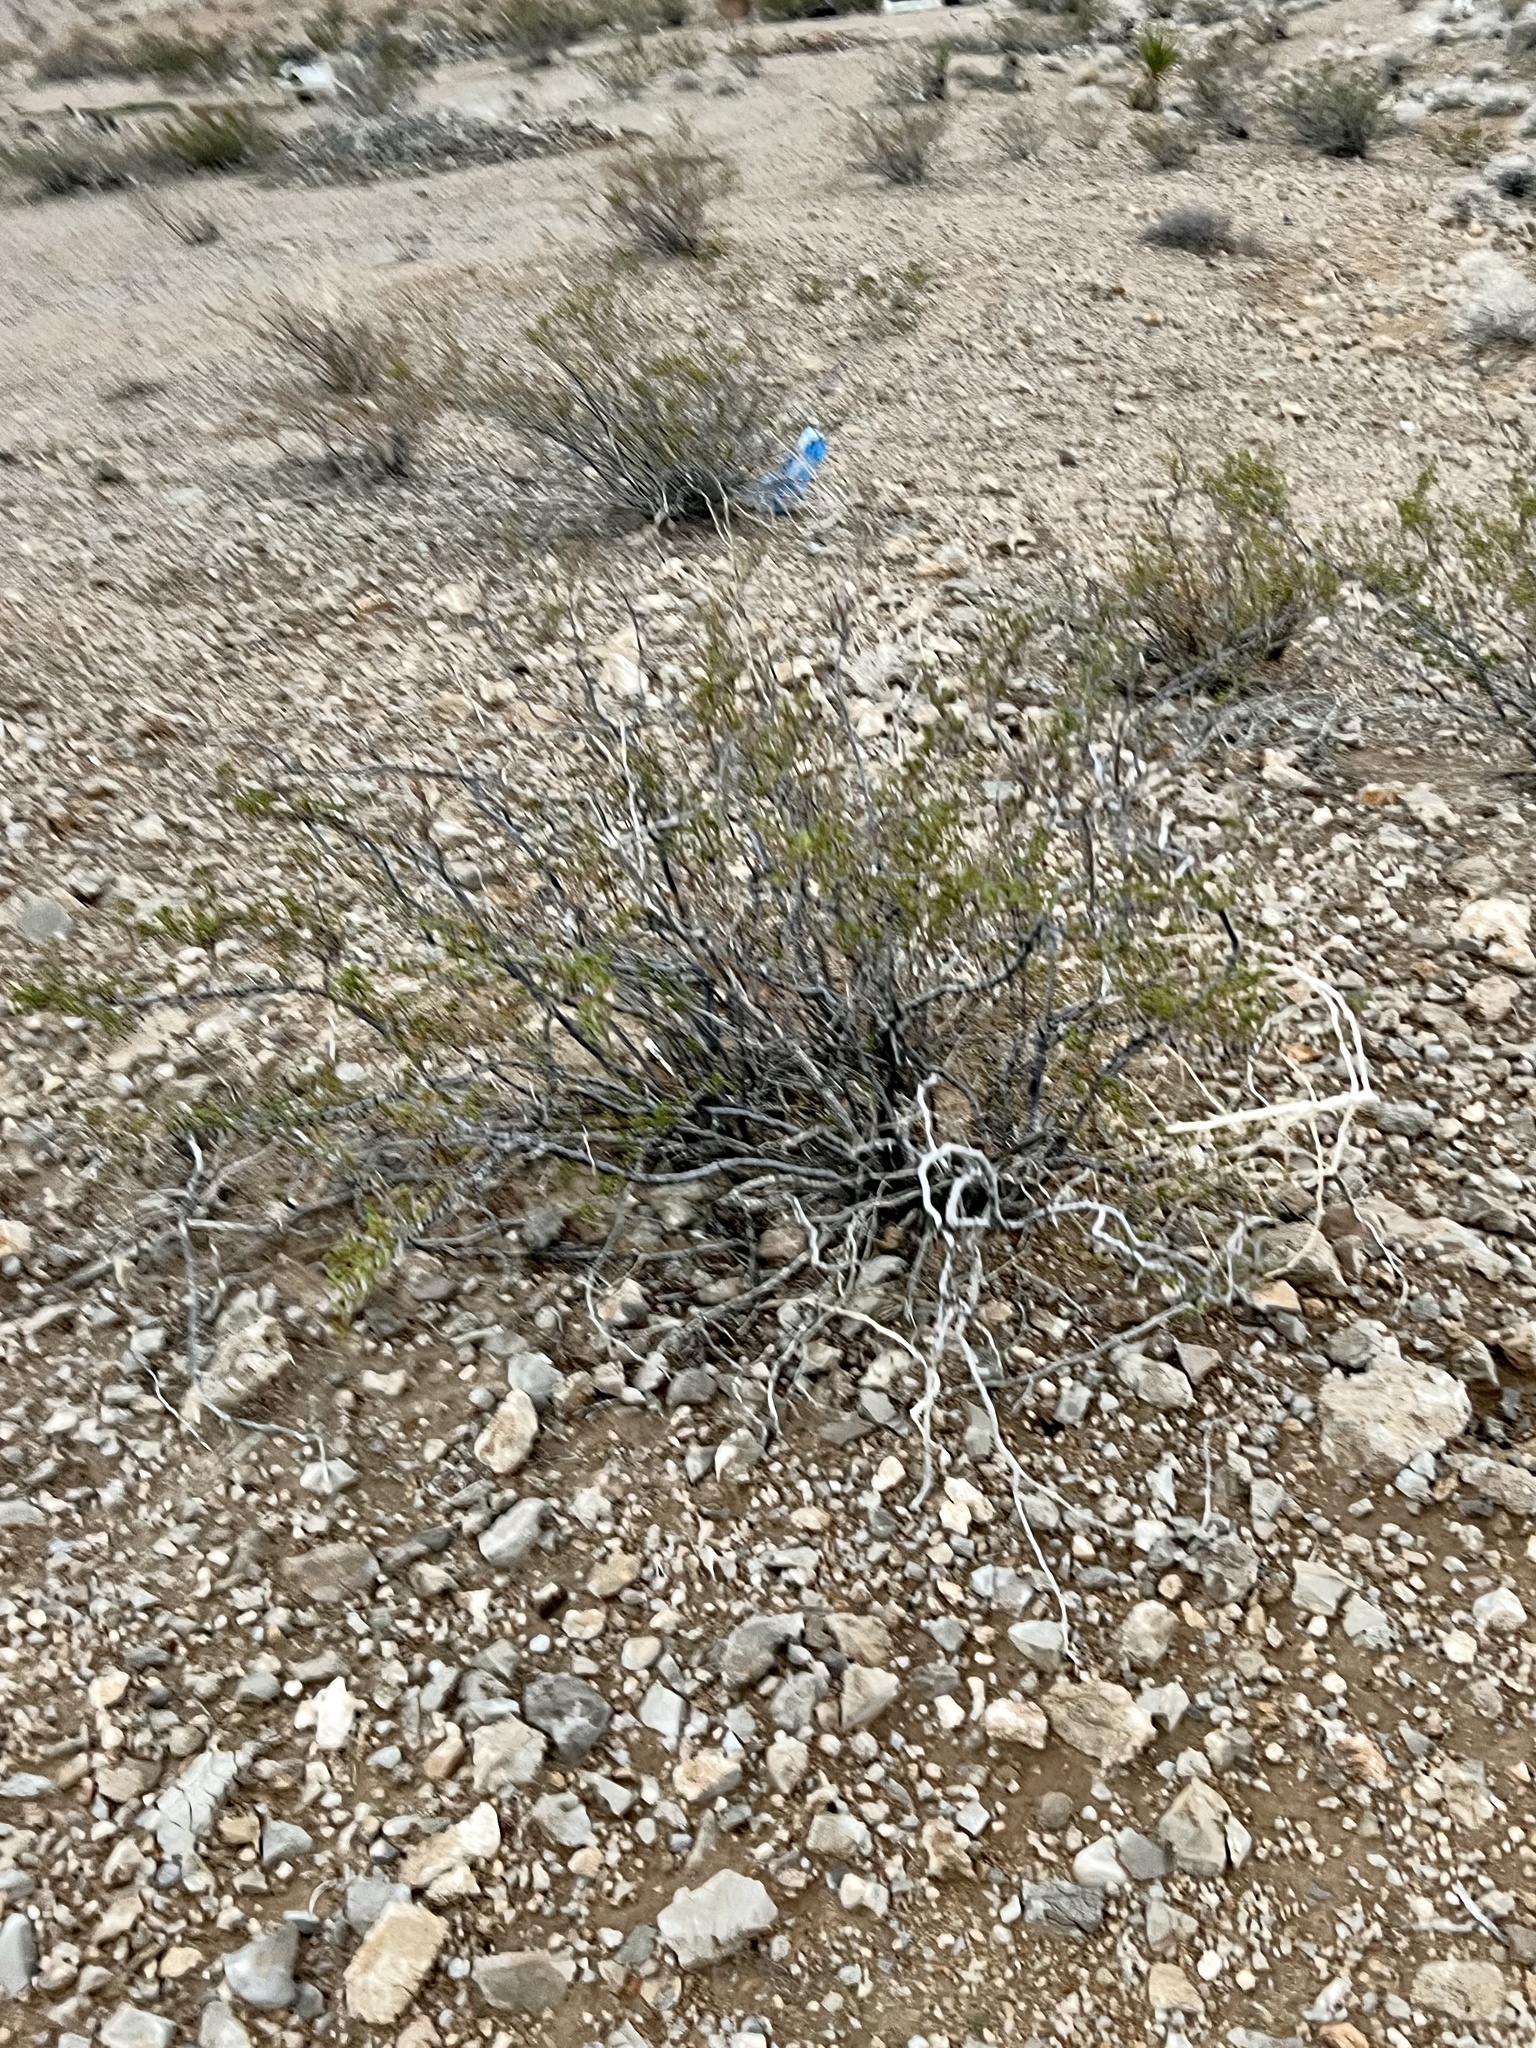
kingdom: Plantae
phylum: Tracheophyta
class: Magnoliopsida
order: Zygophyllales
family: Zygophyllaceae
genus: Larrea
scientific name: Larrea tridentata
